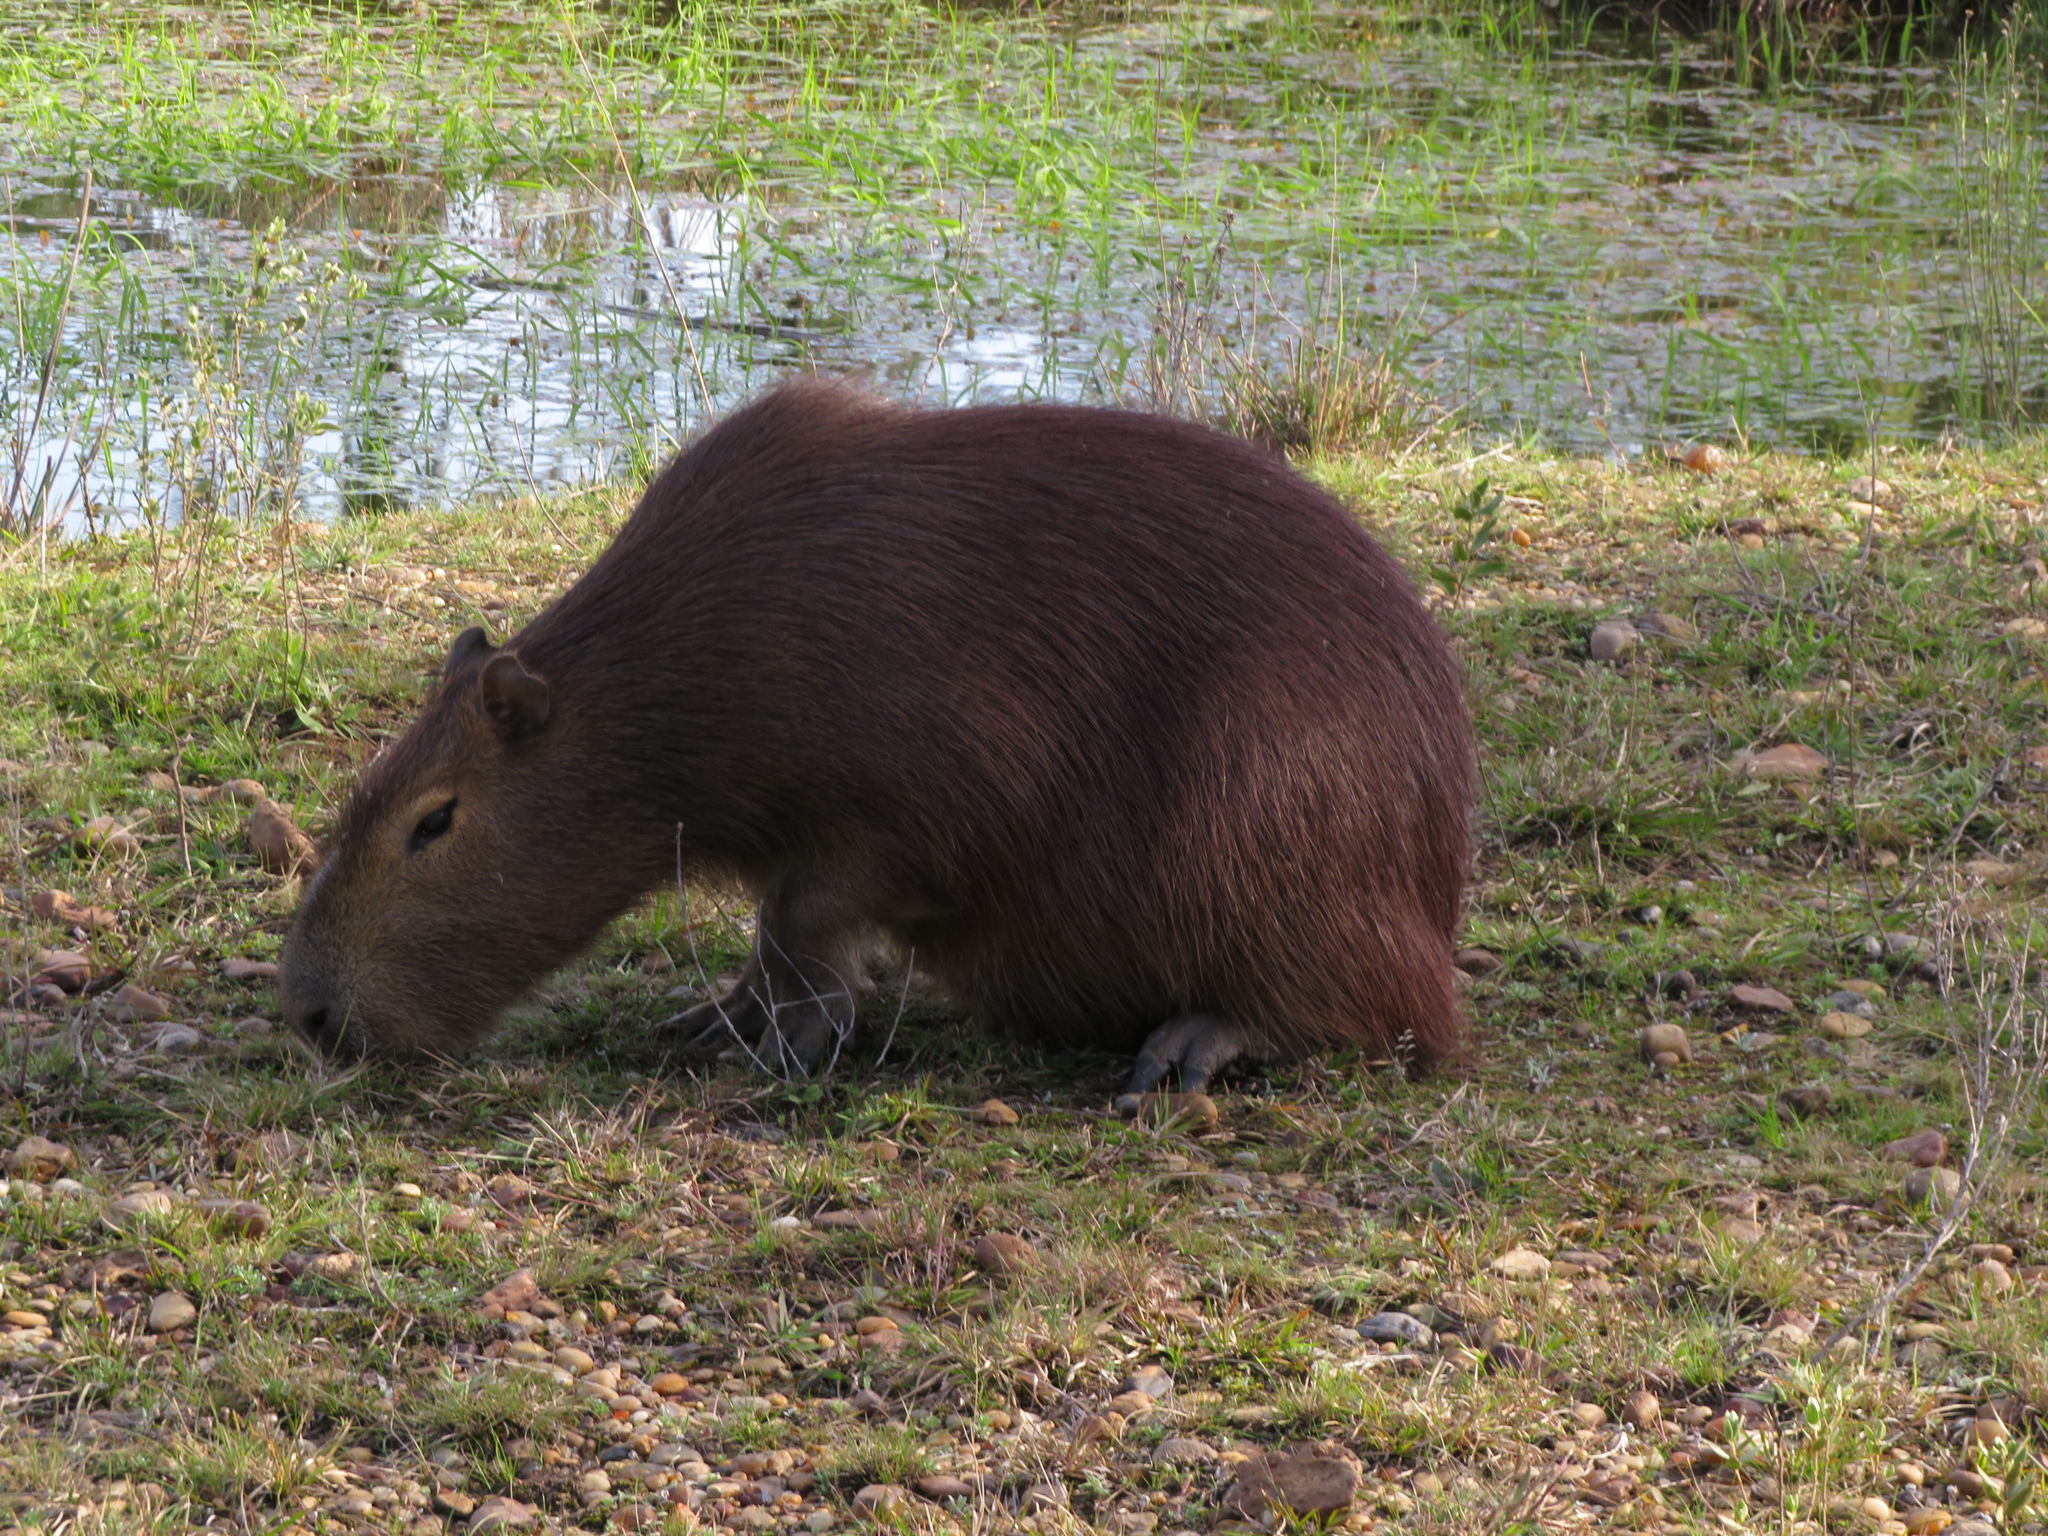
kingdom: Animalia
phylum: Chordata
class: Mammalia
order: Rodentia
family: Caviidae
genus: Hydrochoerus
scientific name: Hydrochoerus hydrochaeris
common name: Capybara
